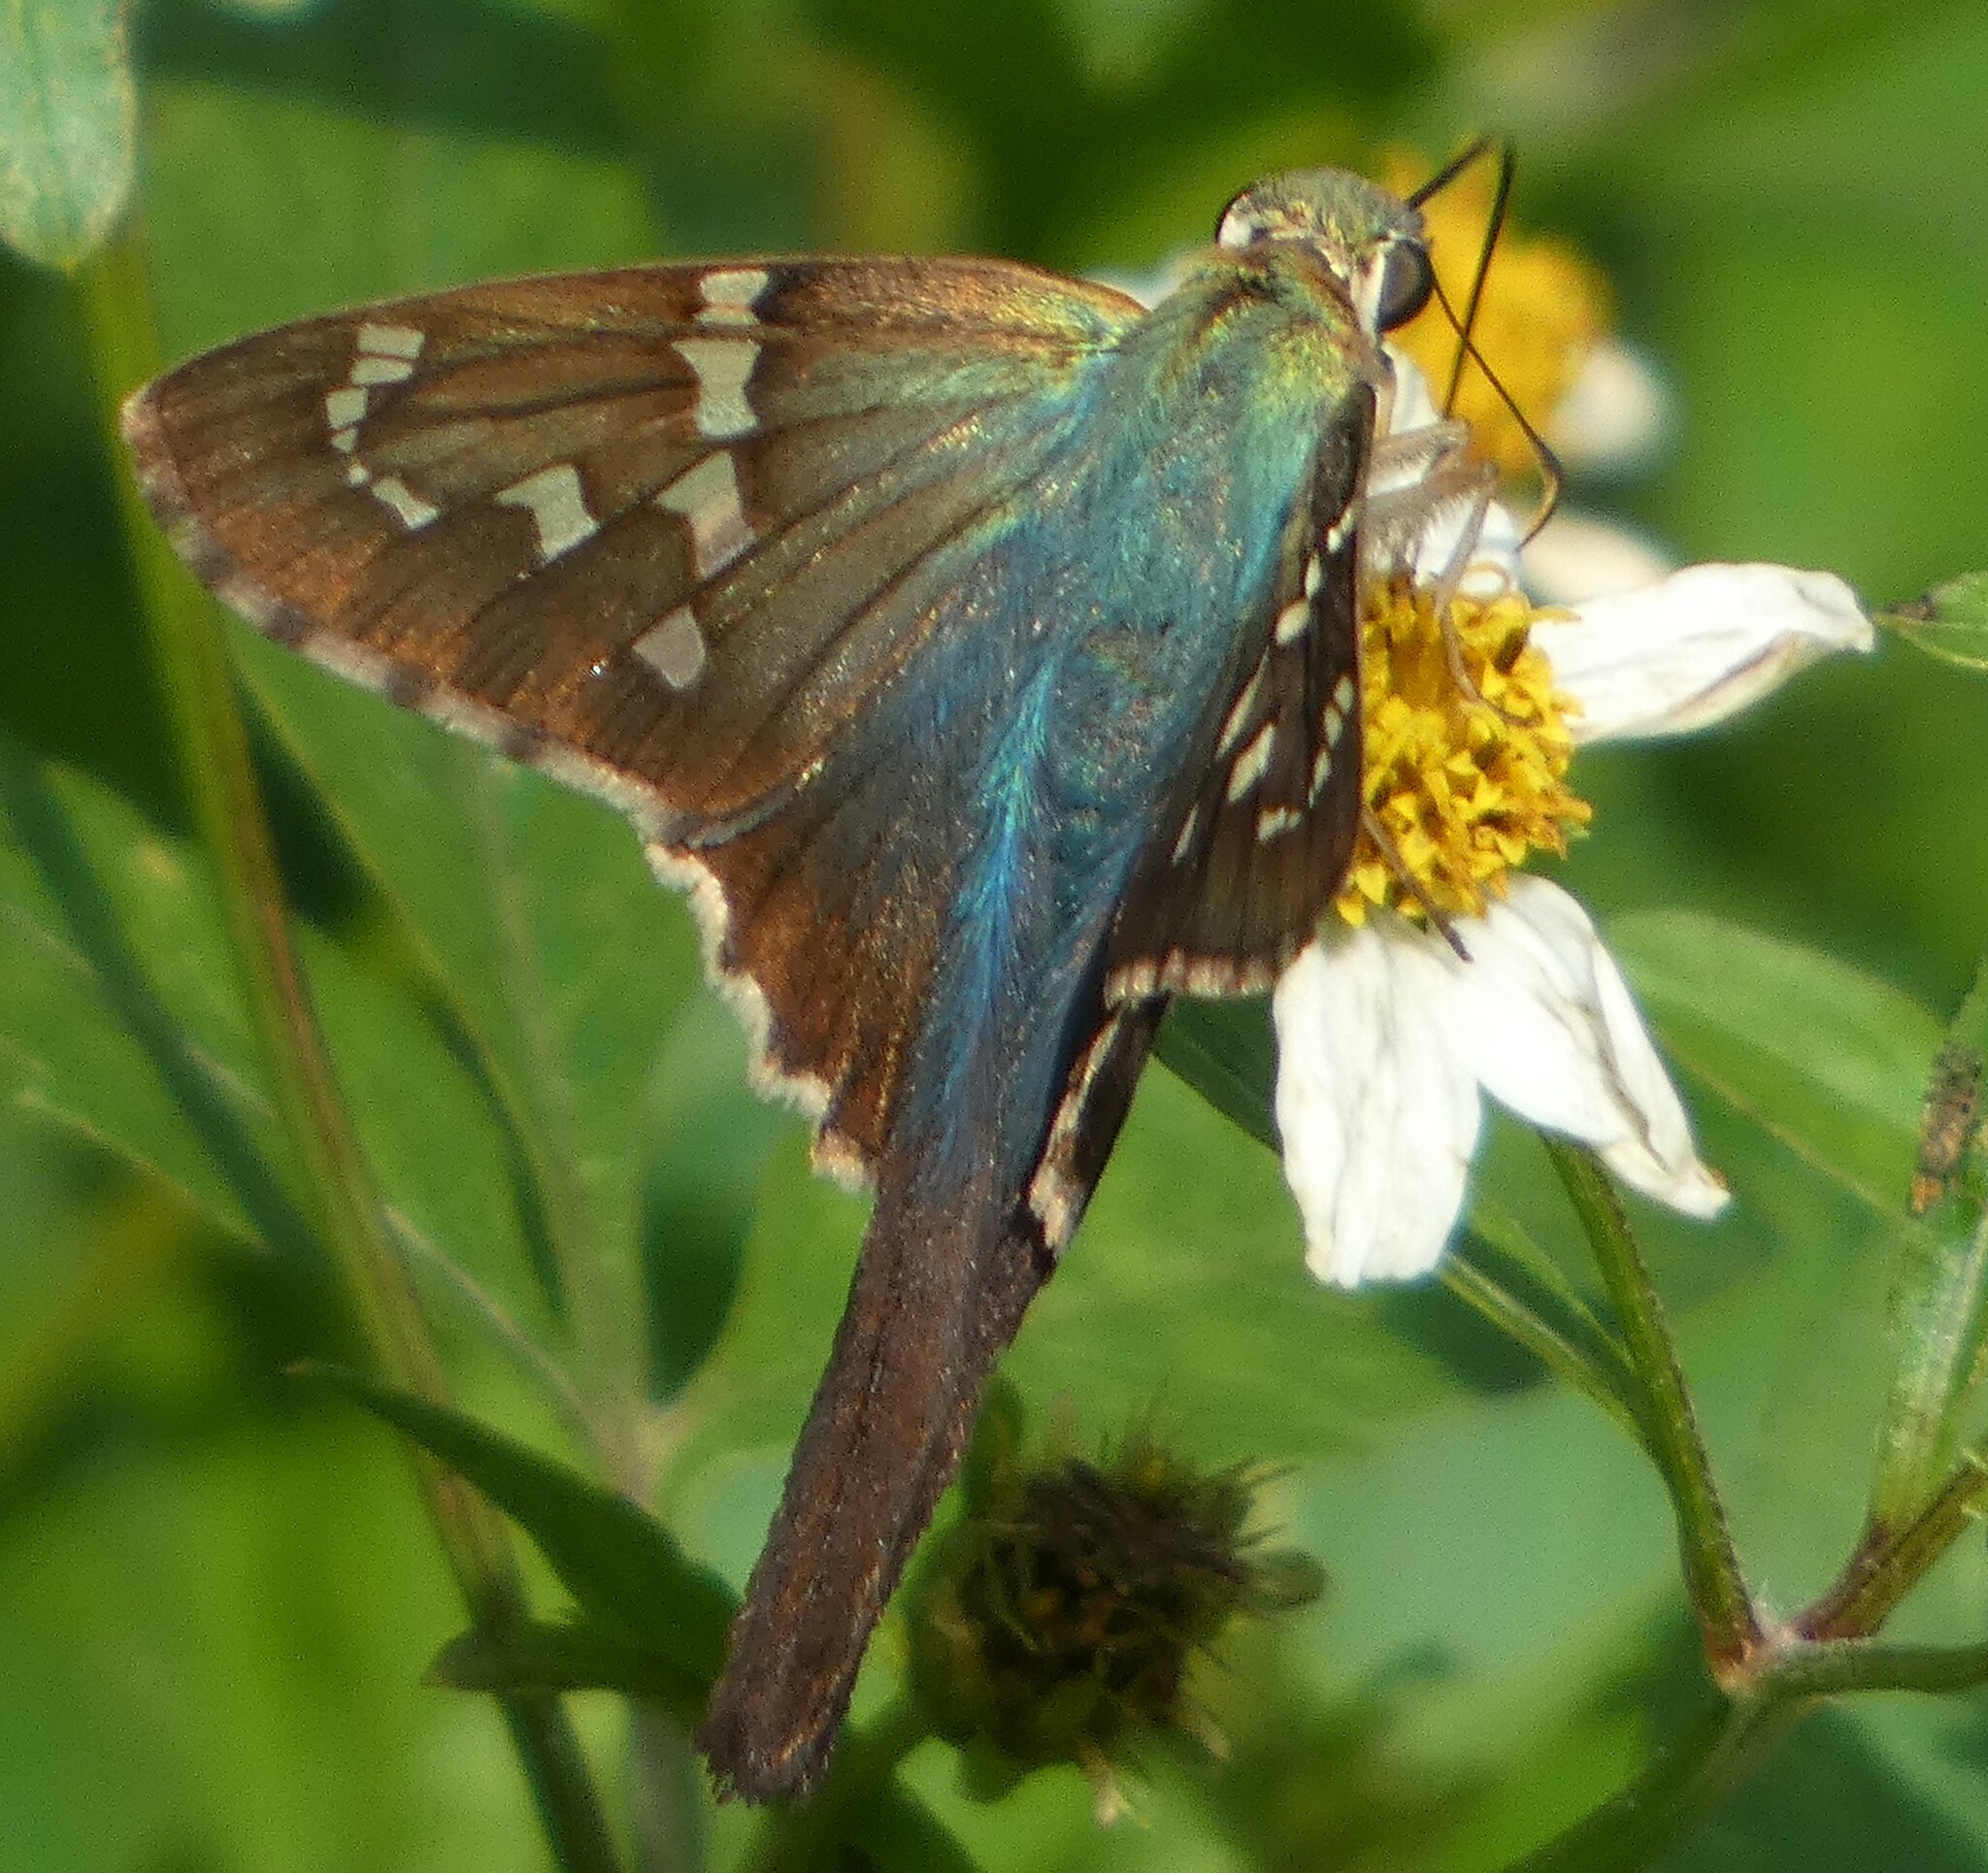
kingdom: Animalia
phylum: Arthropoda
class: Insecta
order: Lepidoptera
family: Hesperiidae
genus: Urbanus
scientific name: Urbanus proteus
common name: Long-tailed skipper
